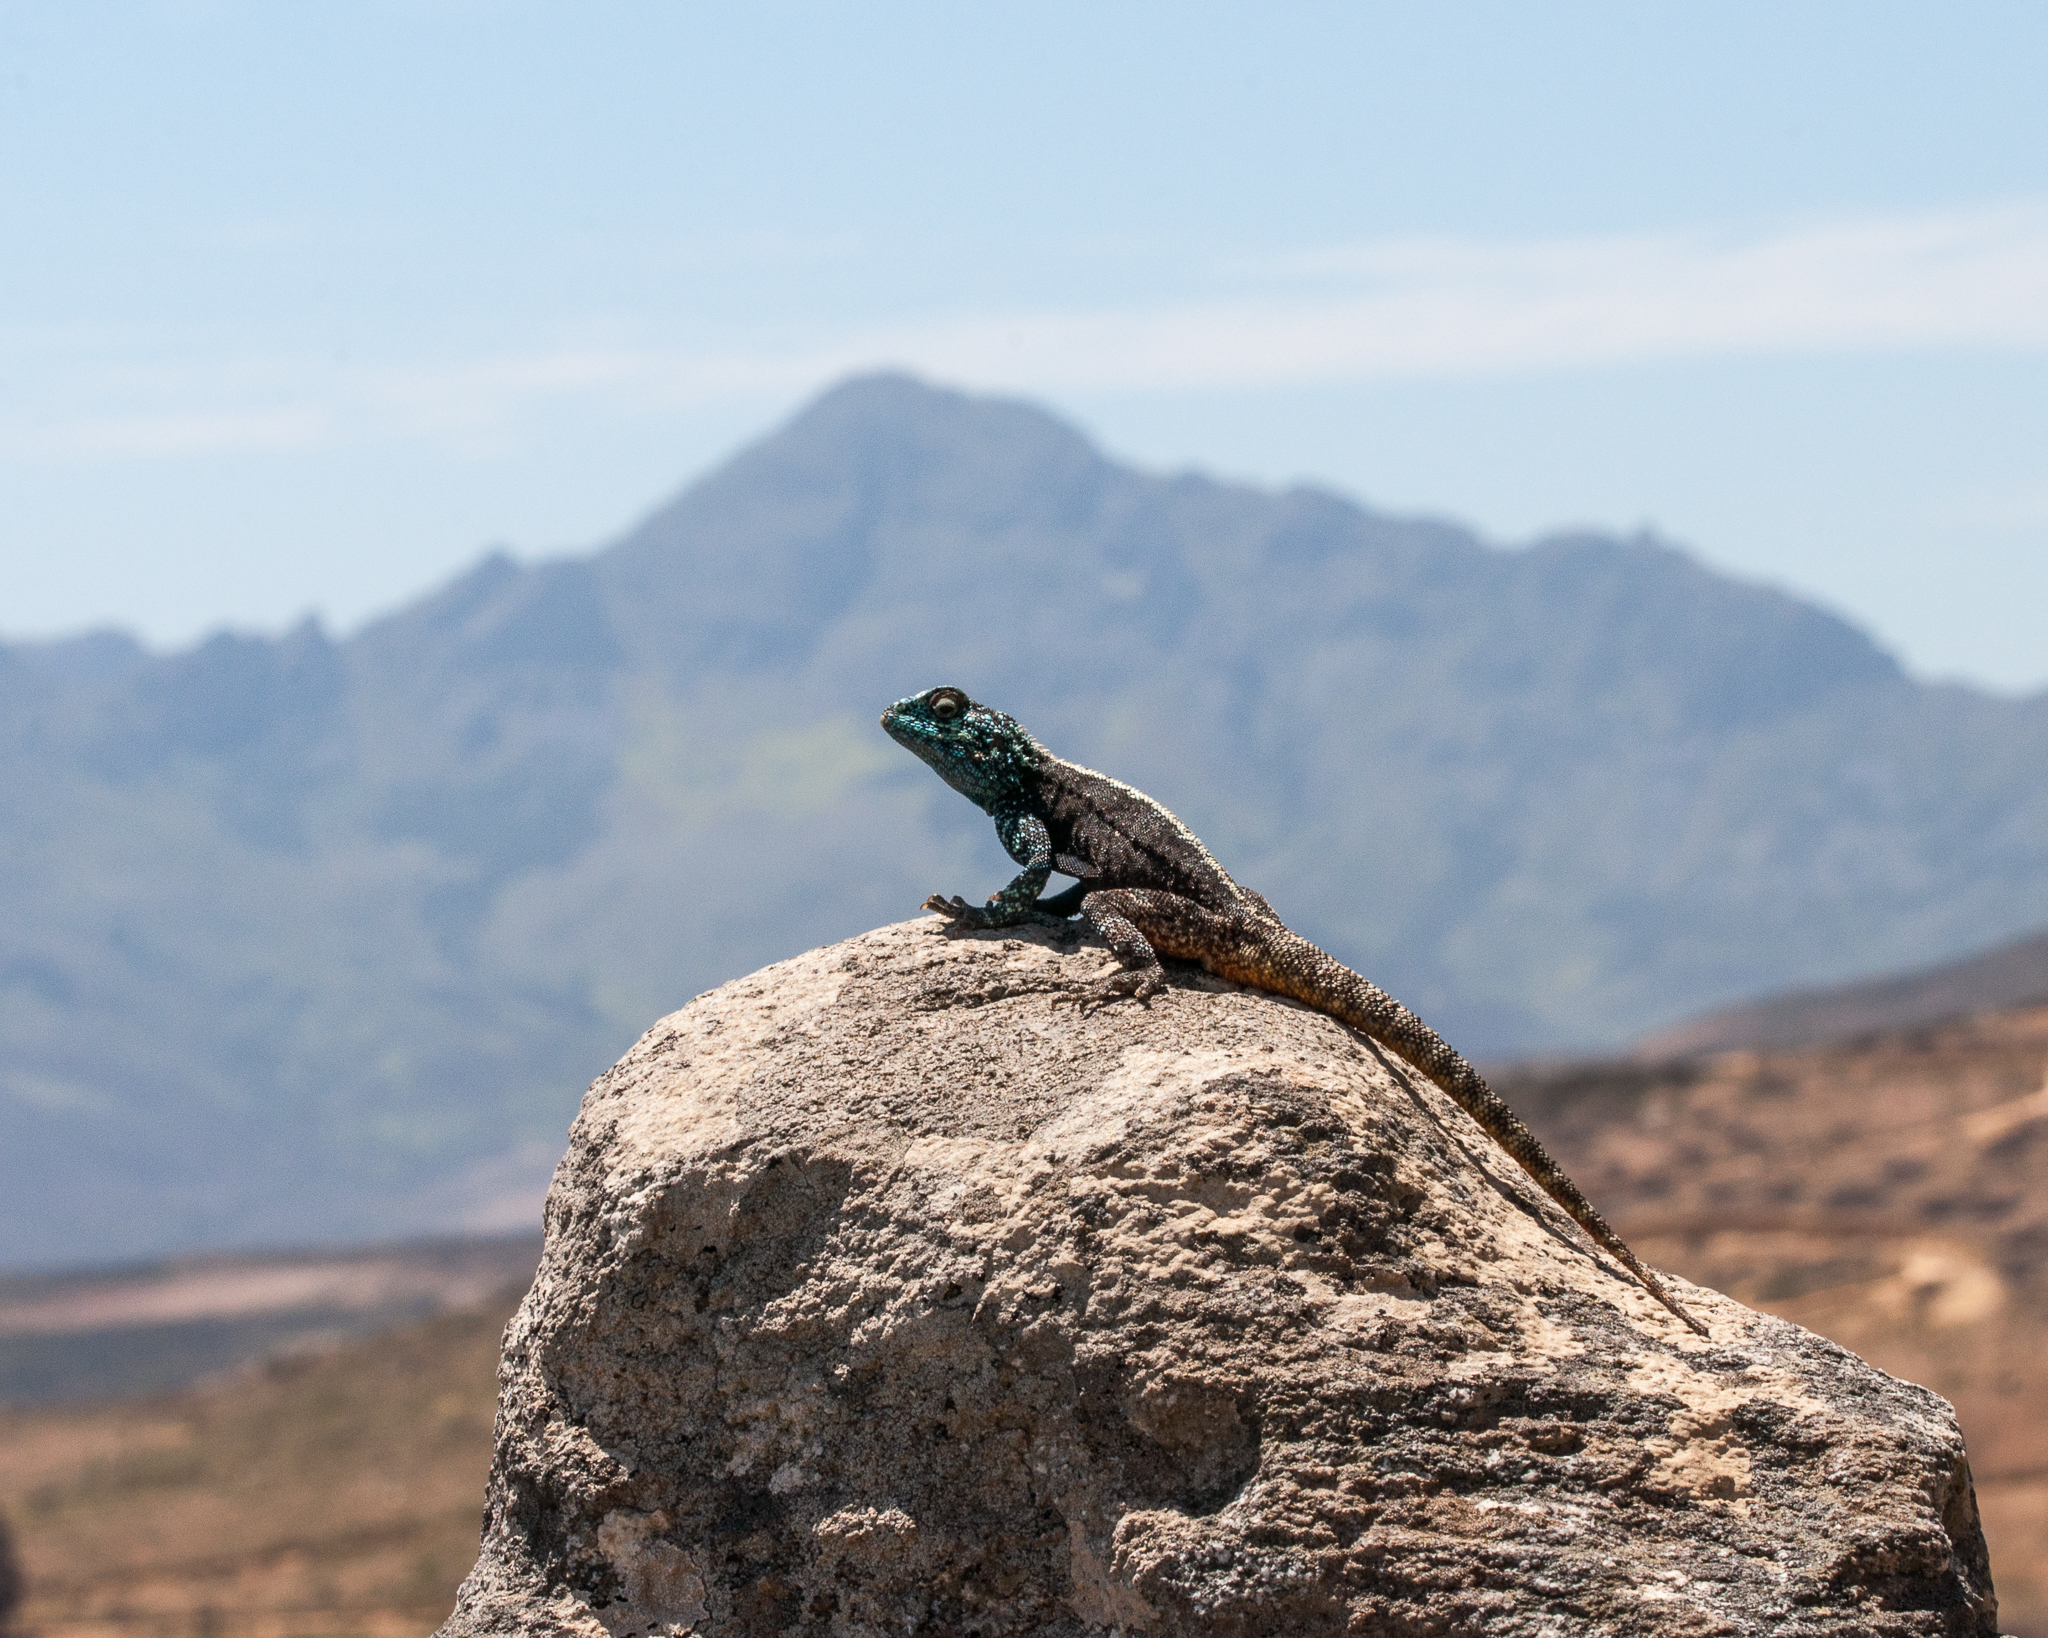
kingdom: Animalia
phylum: Chordata
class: Squamata
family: Agamidae
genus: Agama
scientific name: Agama atra
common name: Southern african rock agama
